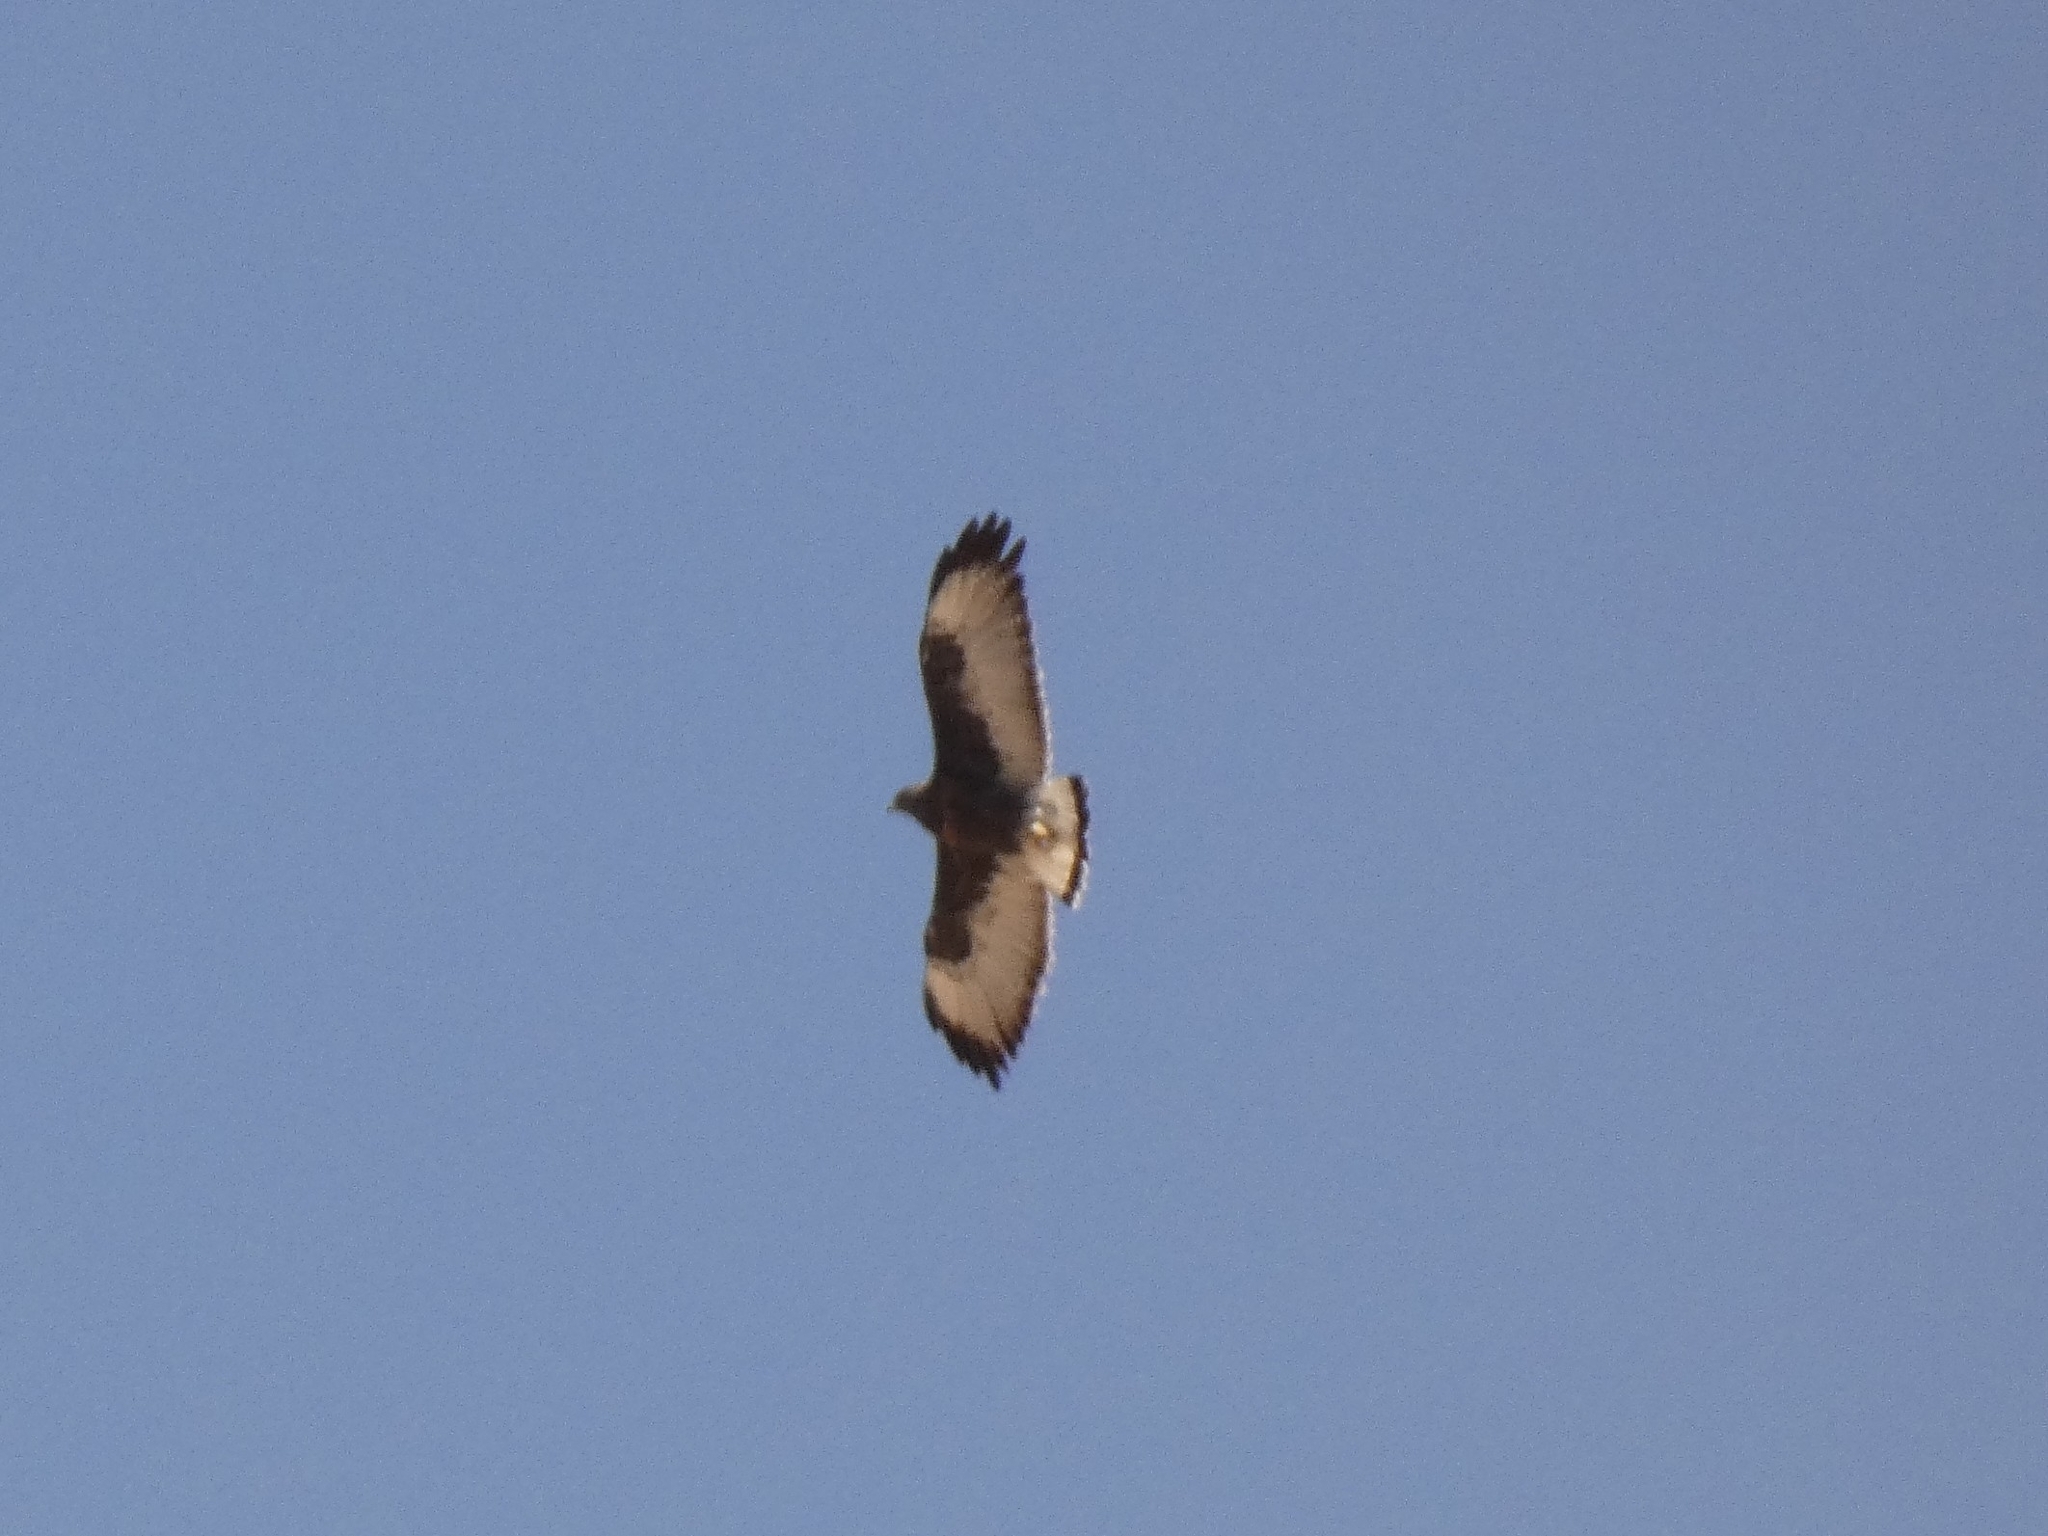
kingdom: Animalia
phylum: Chordata
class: Aves
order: Accipitriformes
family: Accipitridae
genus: Buteo
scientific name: Buteo polyosoma
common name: Variable hawk
